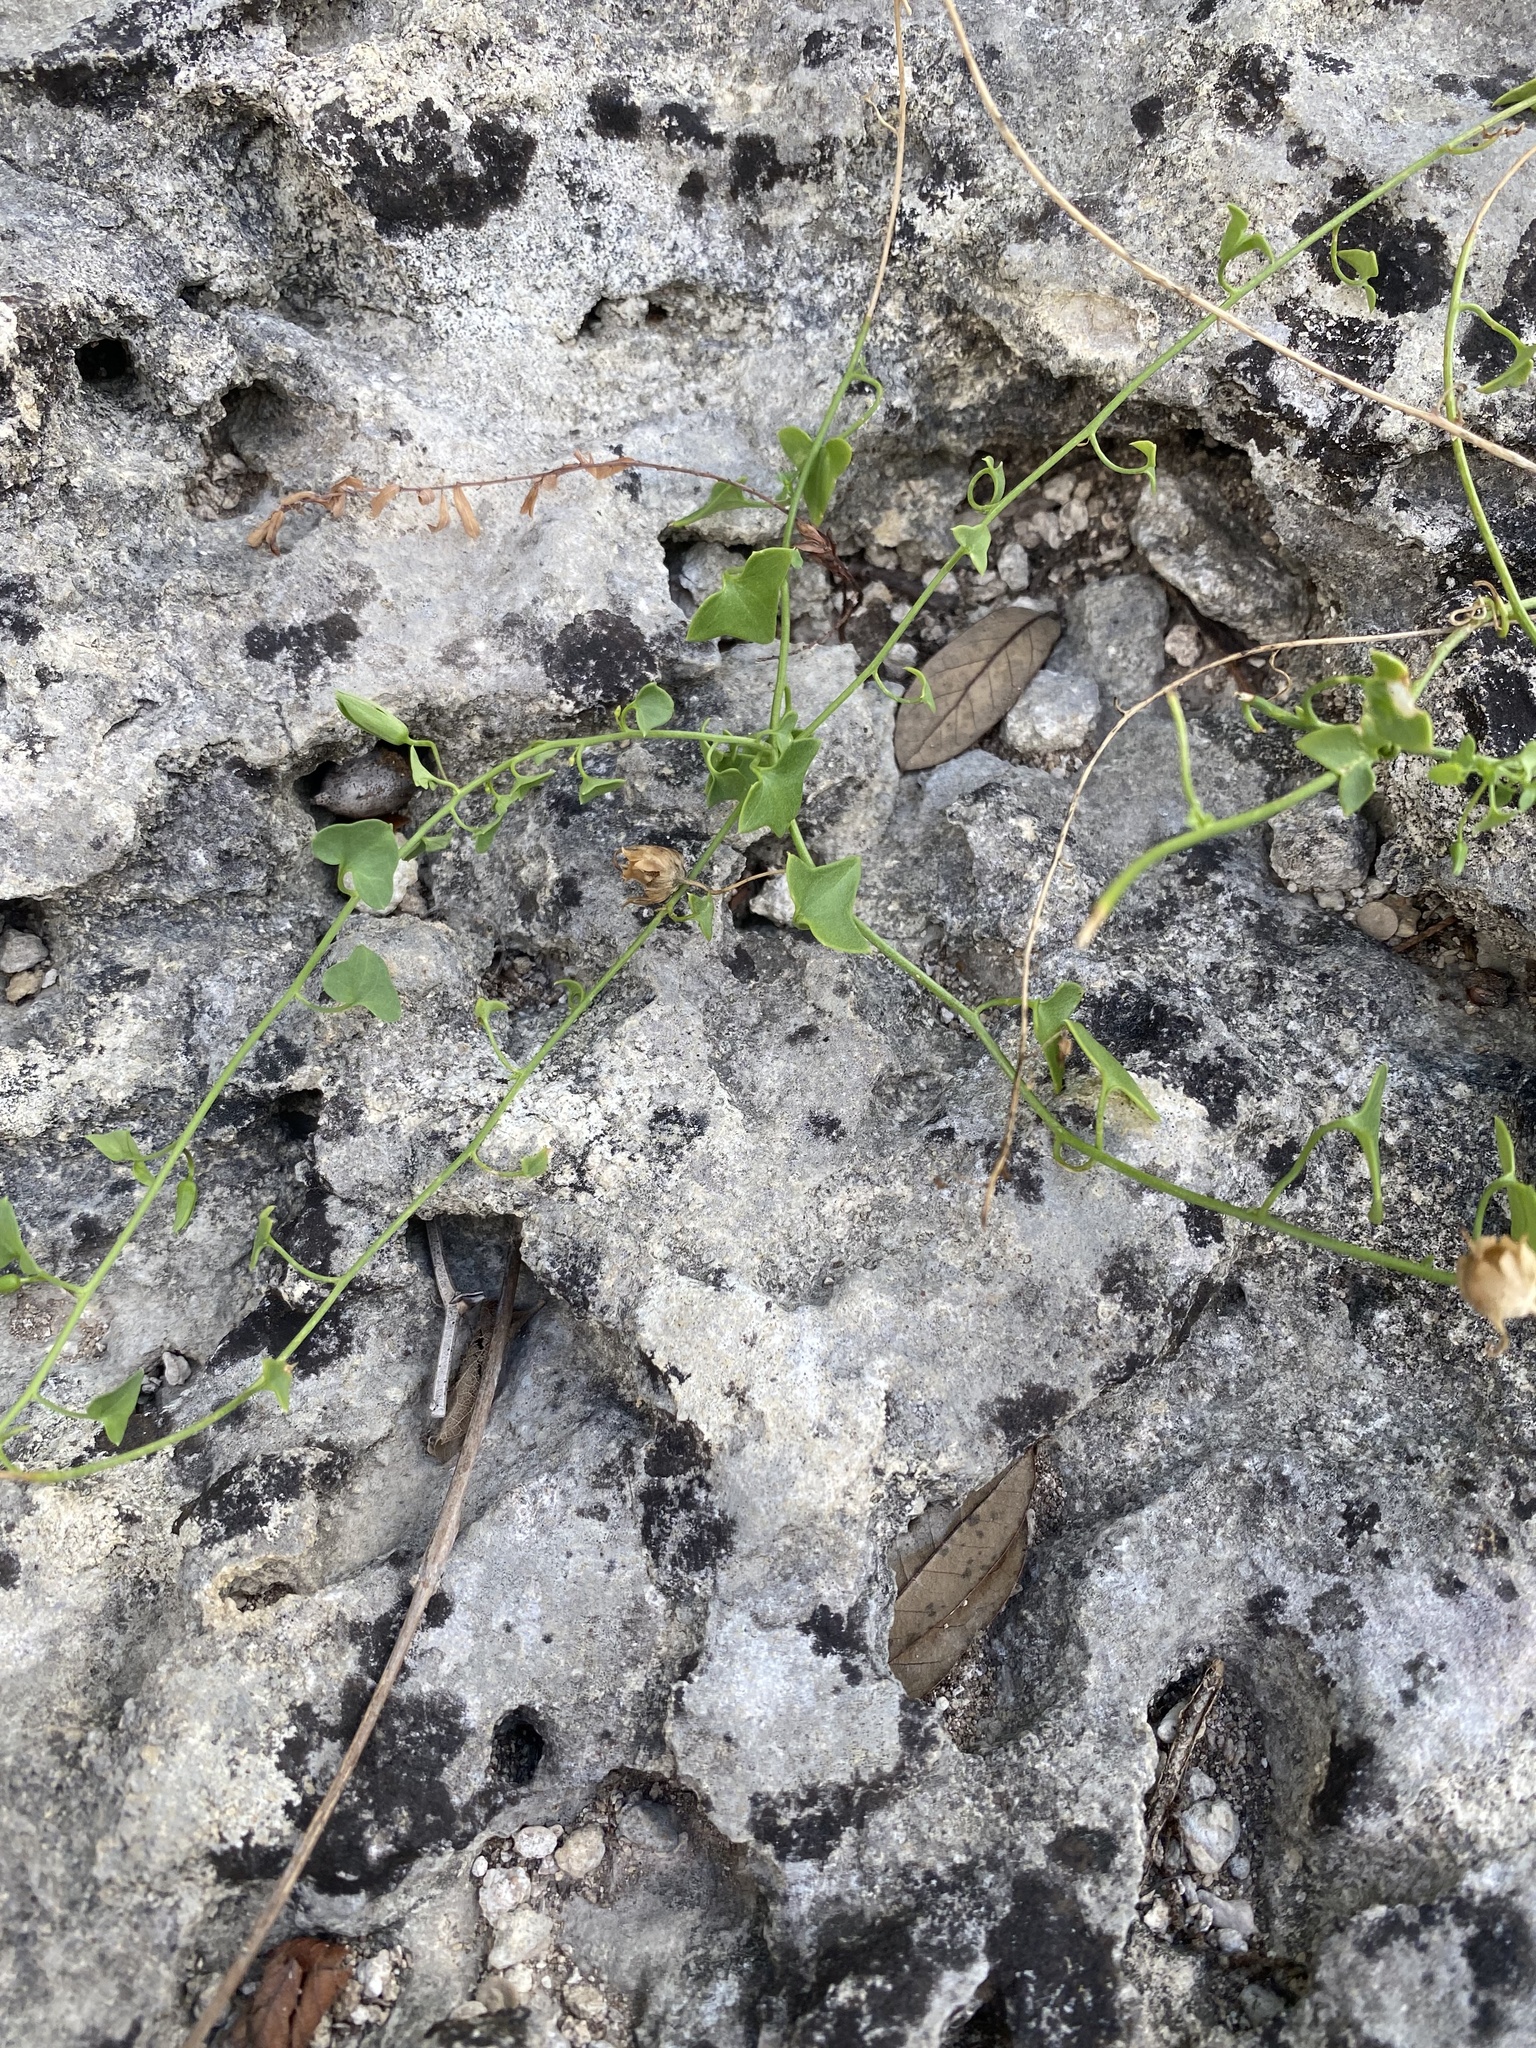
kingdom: Plantae
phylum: Tracheophyta
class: Magnoliopsida
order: Lamiales
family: Plantaginaceae
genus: Maurandella
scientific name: Maurandella antirrhiniflora
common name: Violet twining-snapdragon
